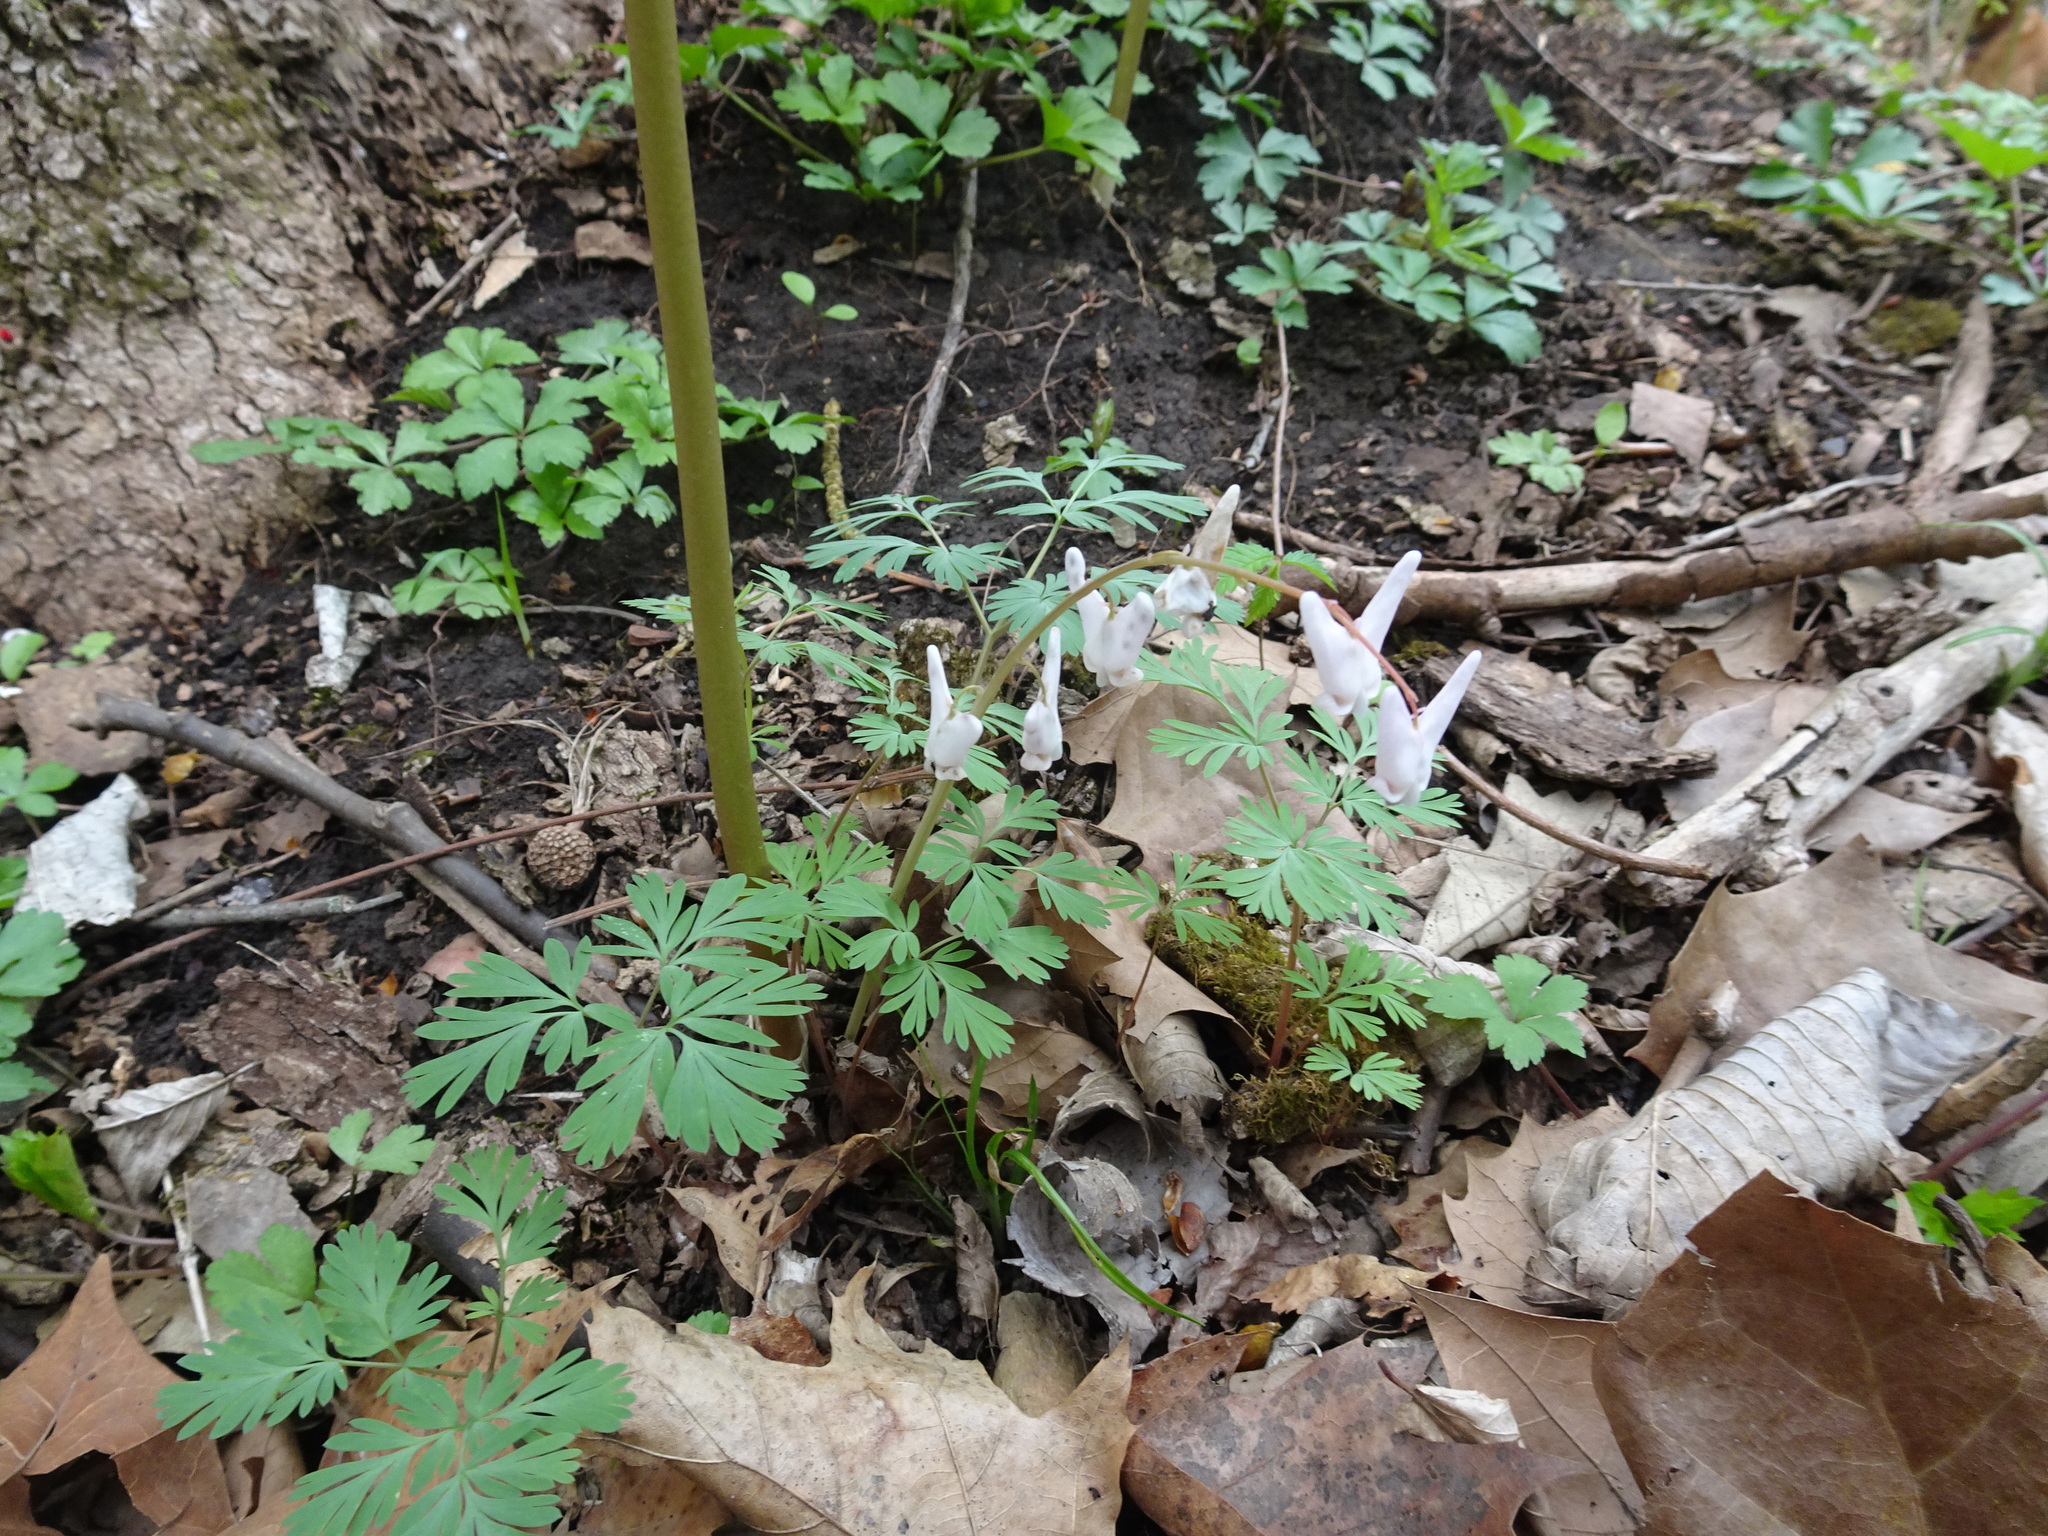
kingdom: Plantae
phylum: Tracheophyta
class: Magnoliopsida
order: Ranunculales
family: Papaveraceae
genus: Dicentra
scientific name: Dicentra cucullaria
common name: Dutchman's breeches
